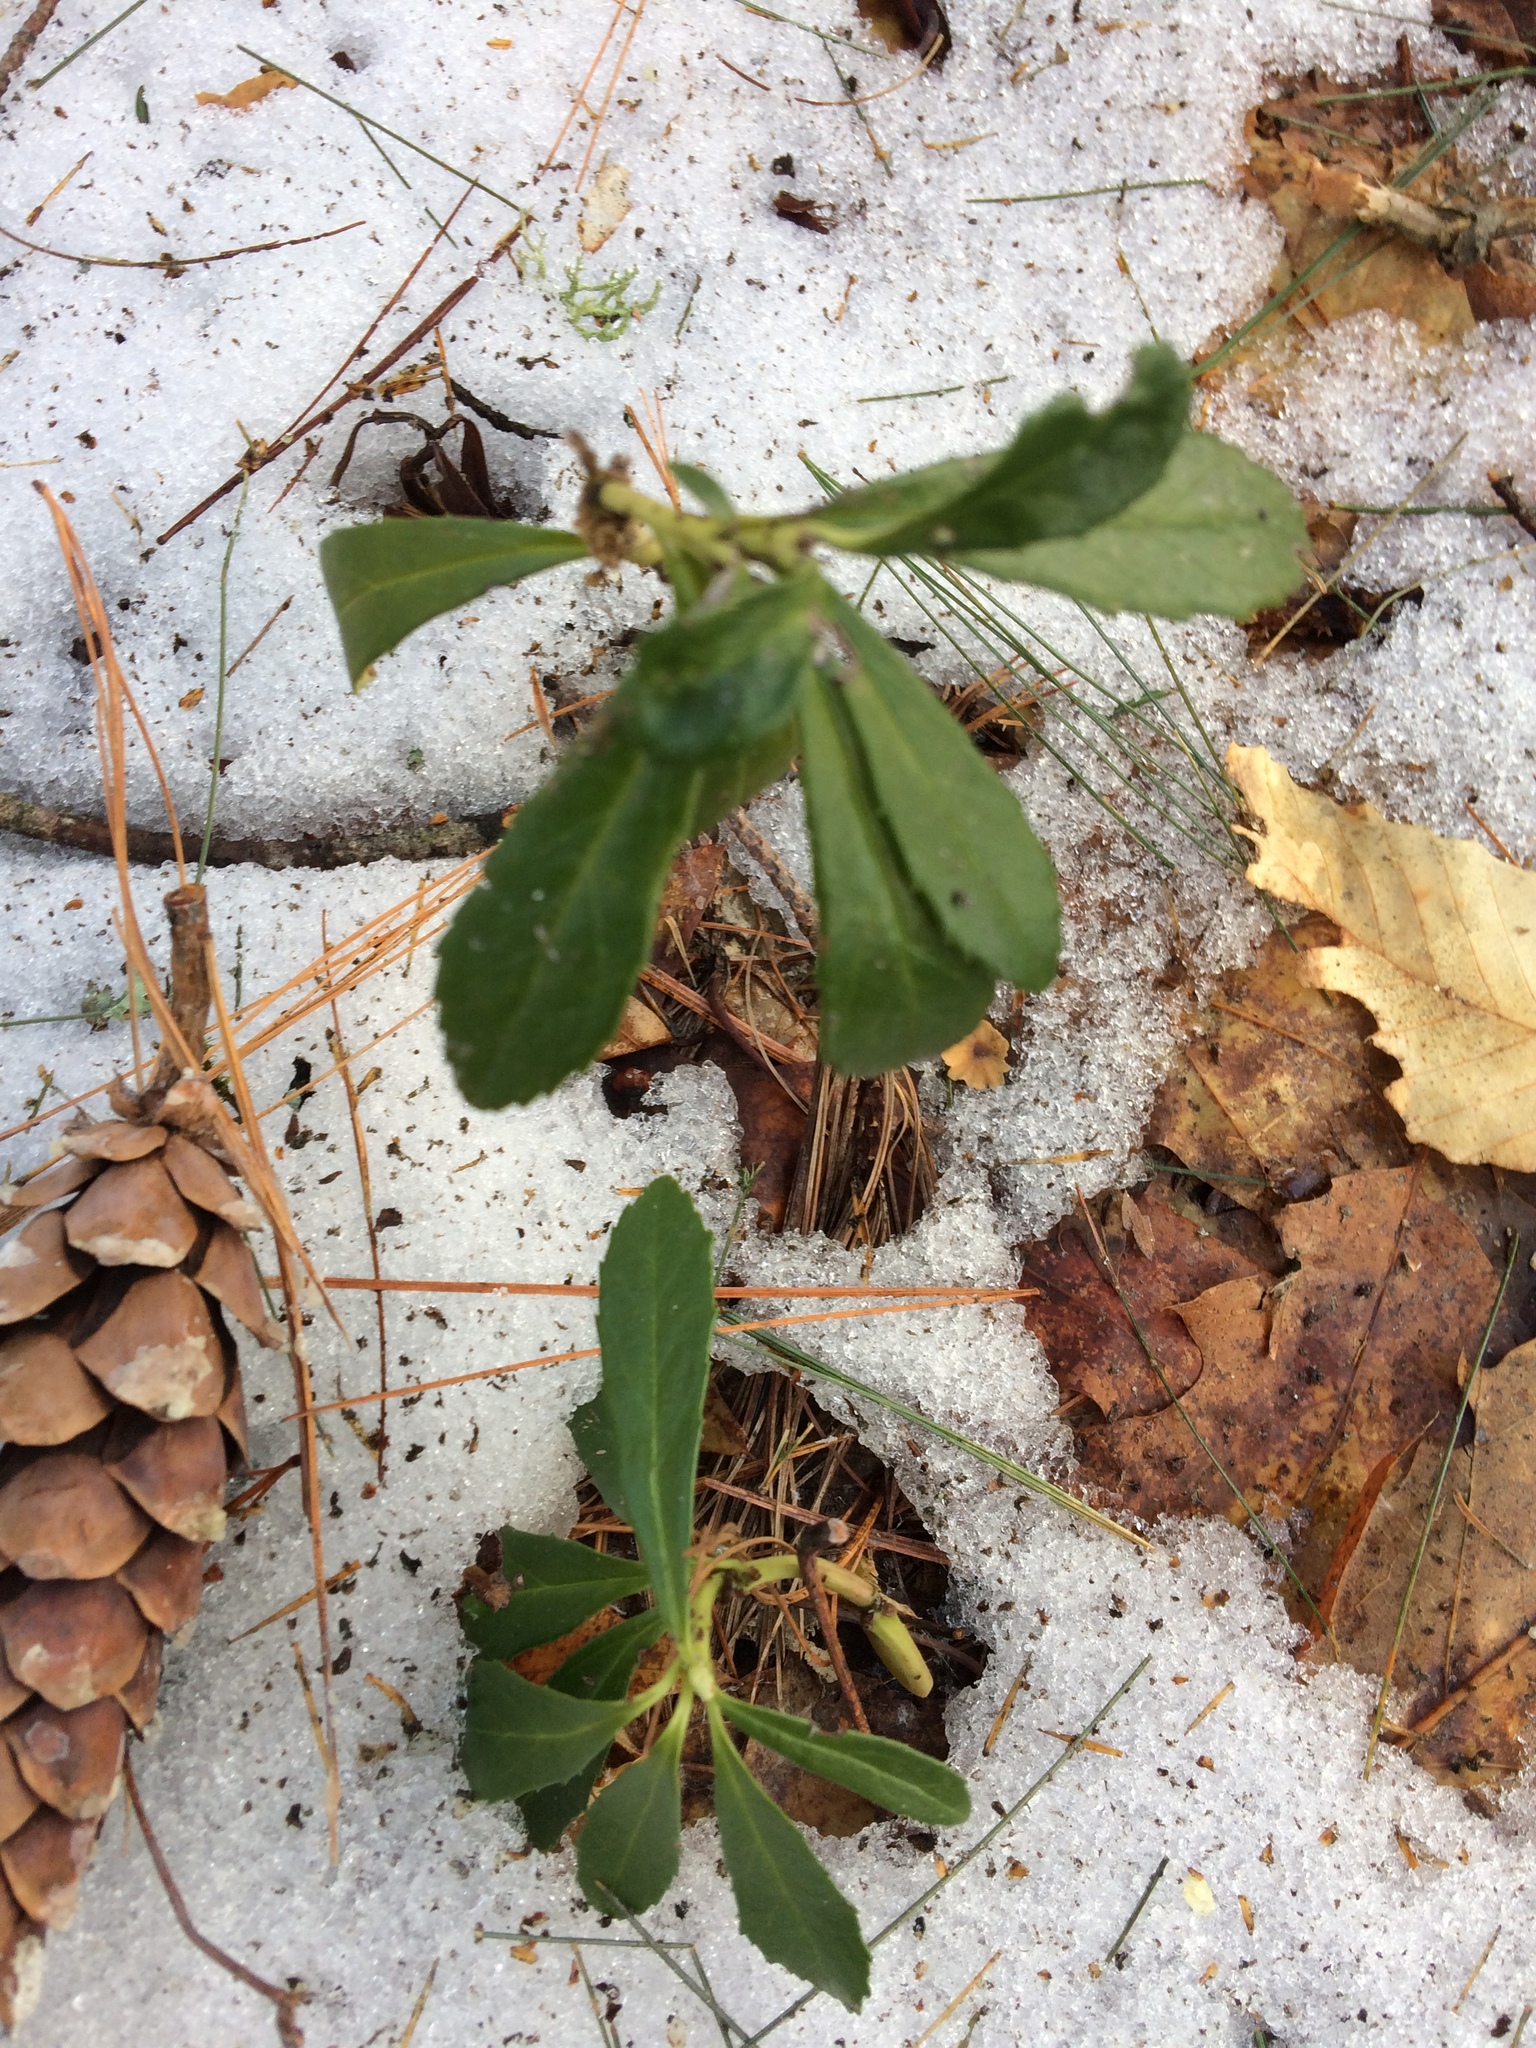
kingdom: Plantae
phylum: Tracheophyta
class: Magnoliopsida
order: Ericales
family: Ericaceae
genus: Chimaphila
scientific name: Chimaphila umbellata
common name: Pipsissewa
